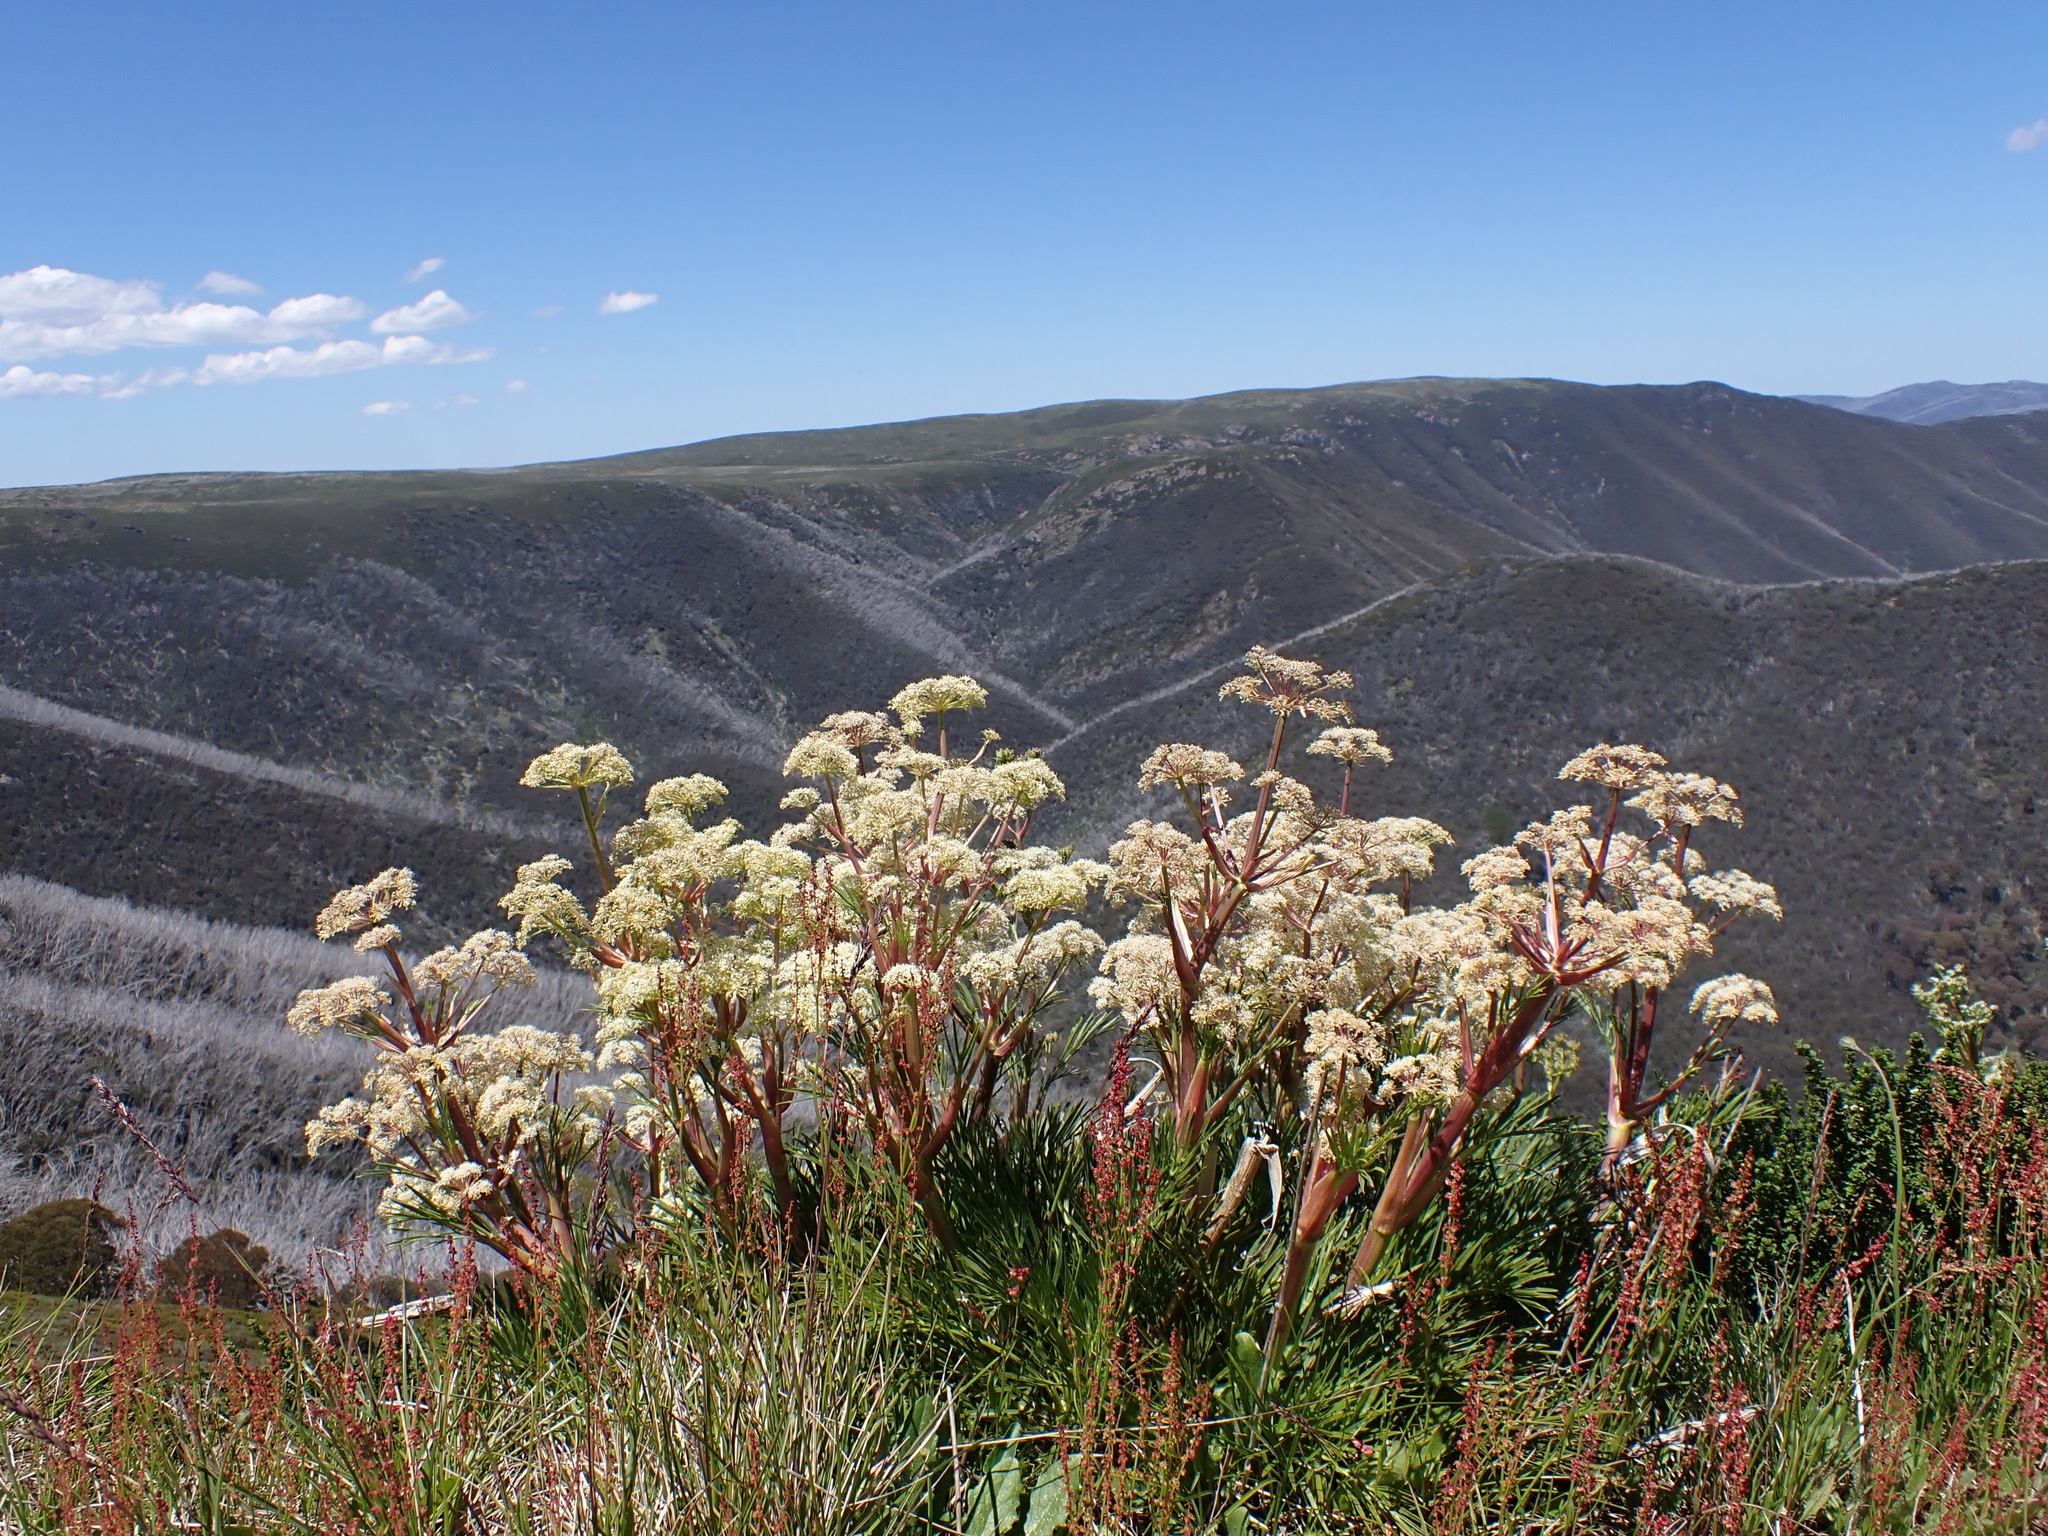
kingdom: Plantae
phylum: Tracheophyta
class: Magnoliopsida
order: Apiales
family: Apiaceae
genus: Aciphylla
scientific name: Aciphylla glacialis
